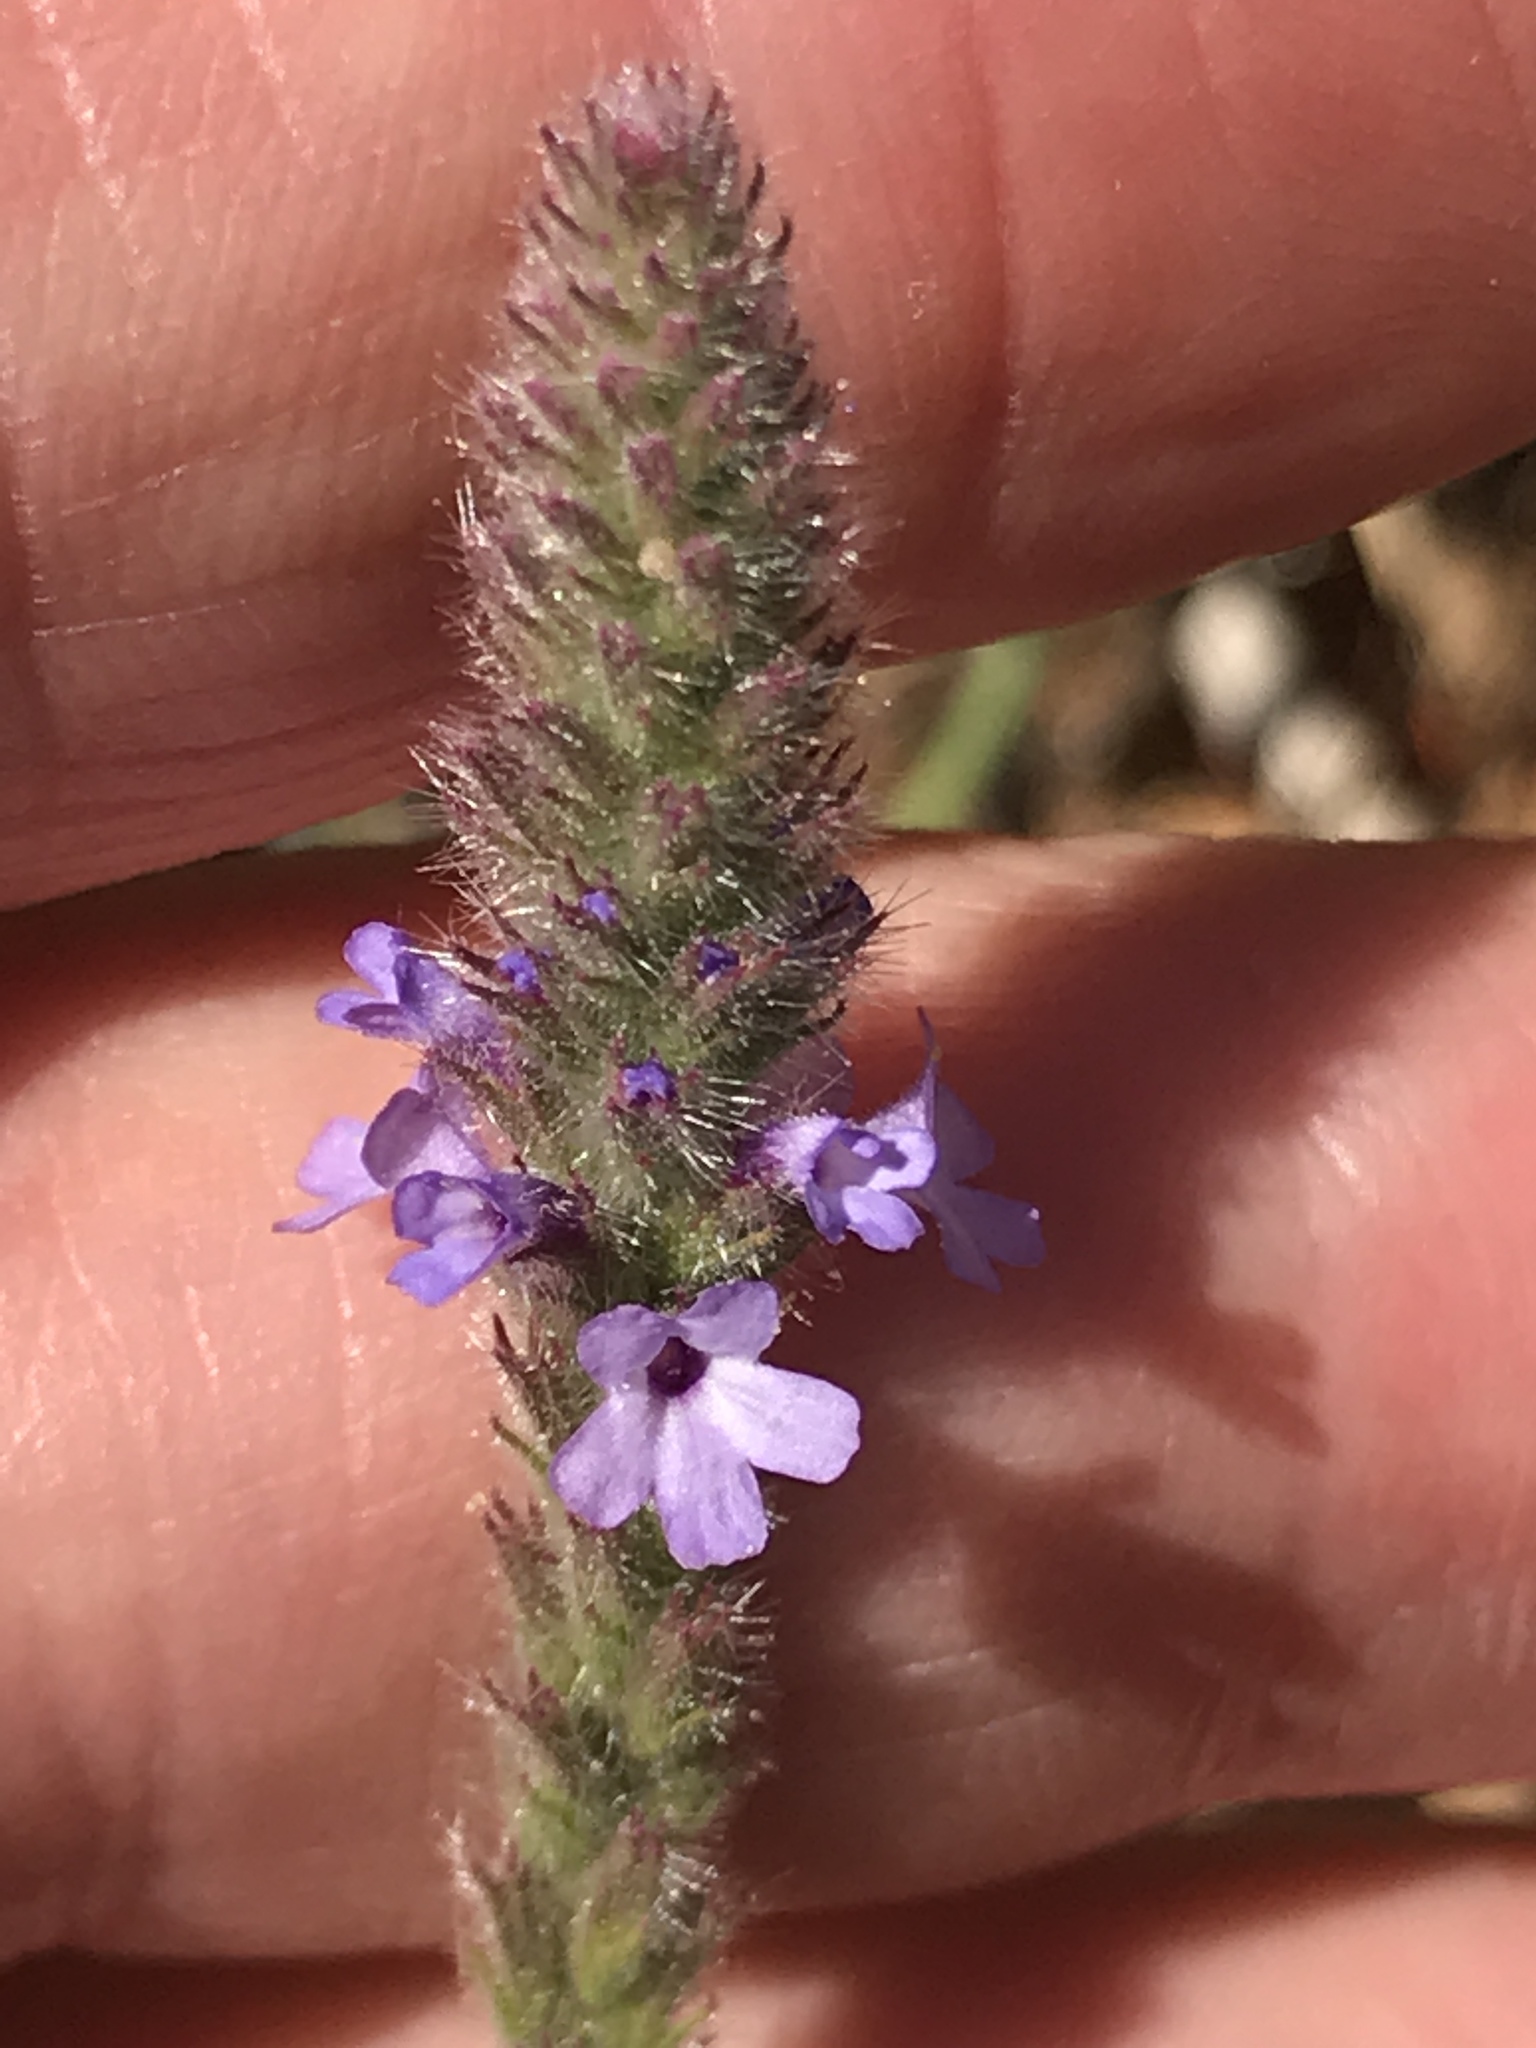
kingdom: Plantae
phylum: Tracheophyta
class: Magnoliopsida
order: Lamiales
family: Verbenaceae
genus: Verbena
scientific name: Verbena lasiostachys
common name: Vervain
